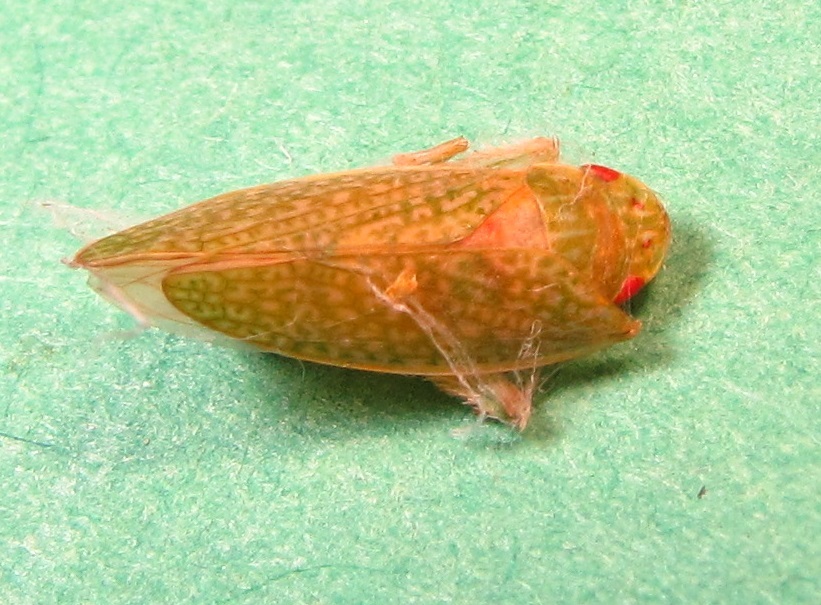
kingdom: Animalia
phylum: Arthropoda
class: Insecta
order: Hemiptera
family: Cicadellidae
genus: Rugosana
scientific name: Rugosana querci
